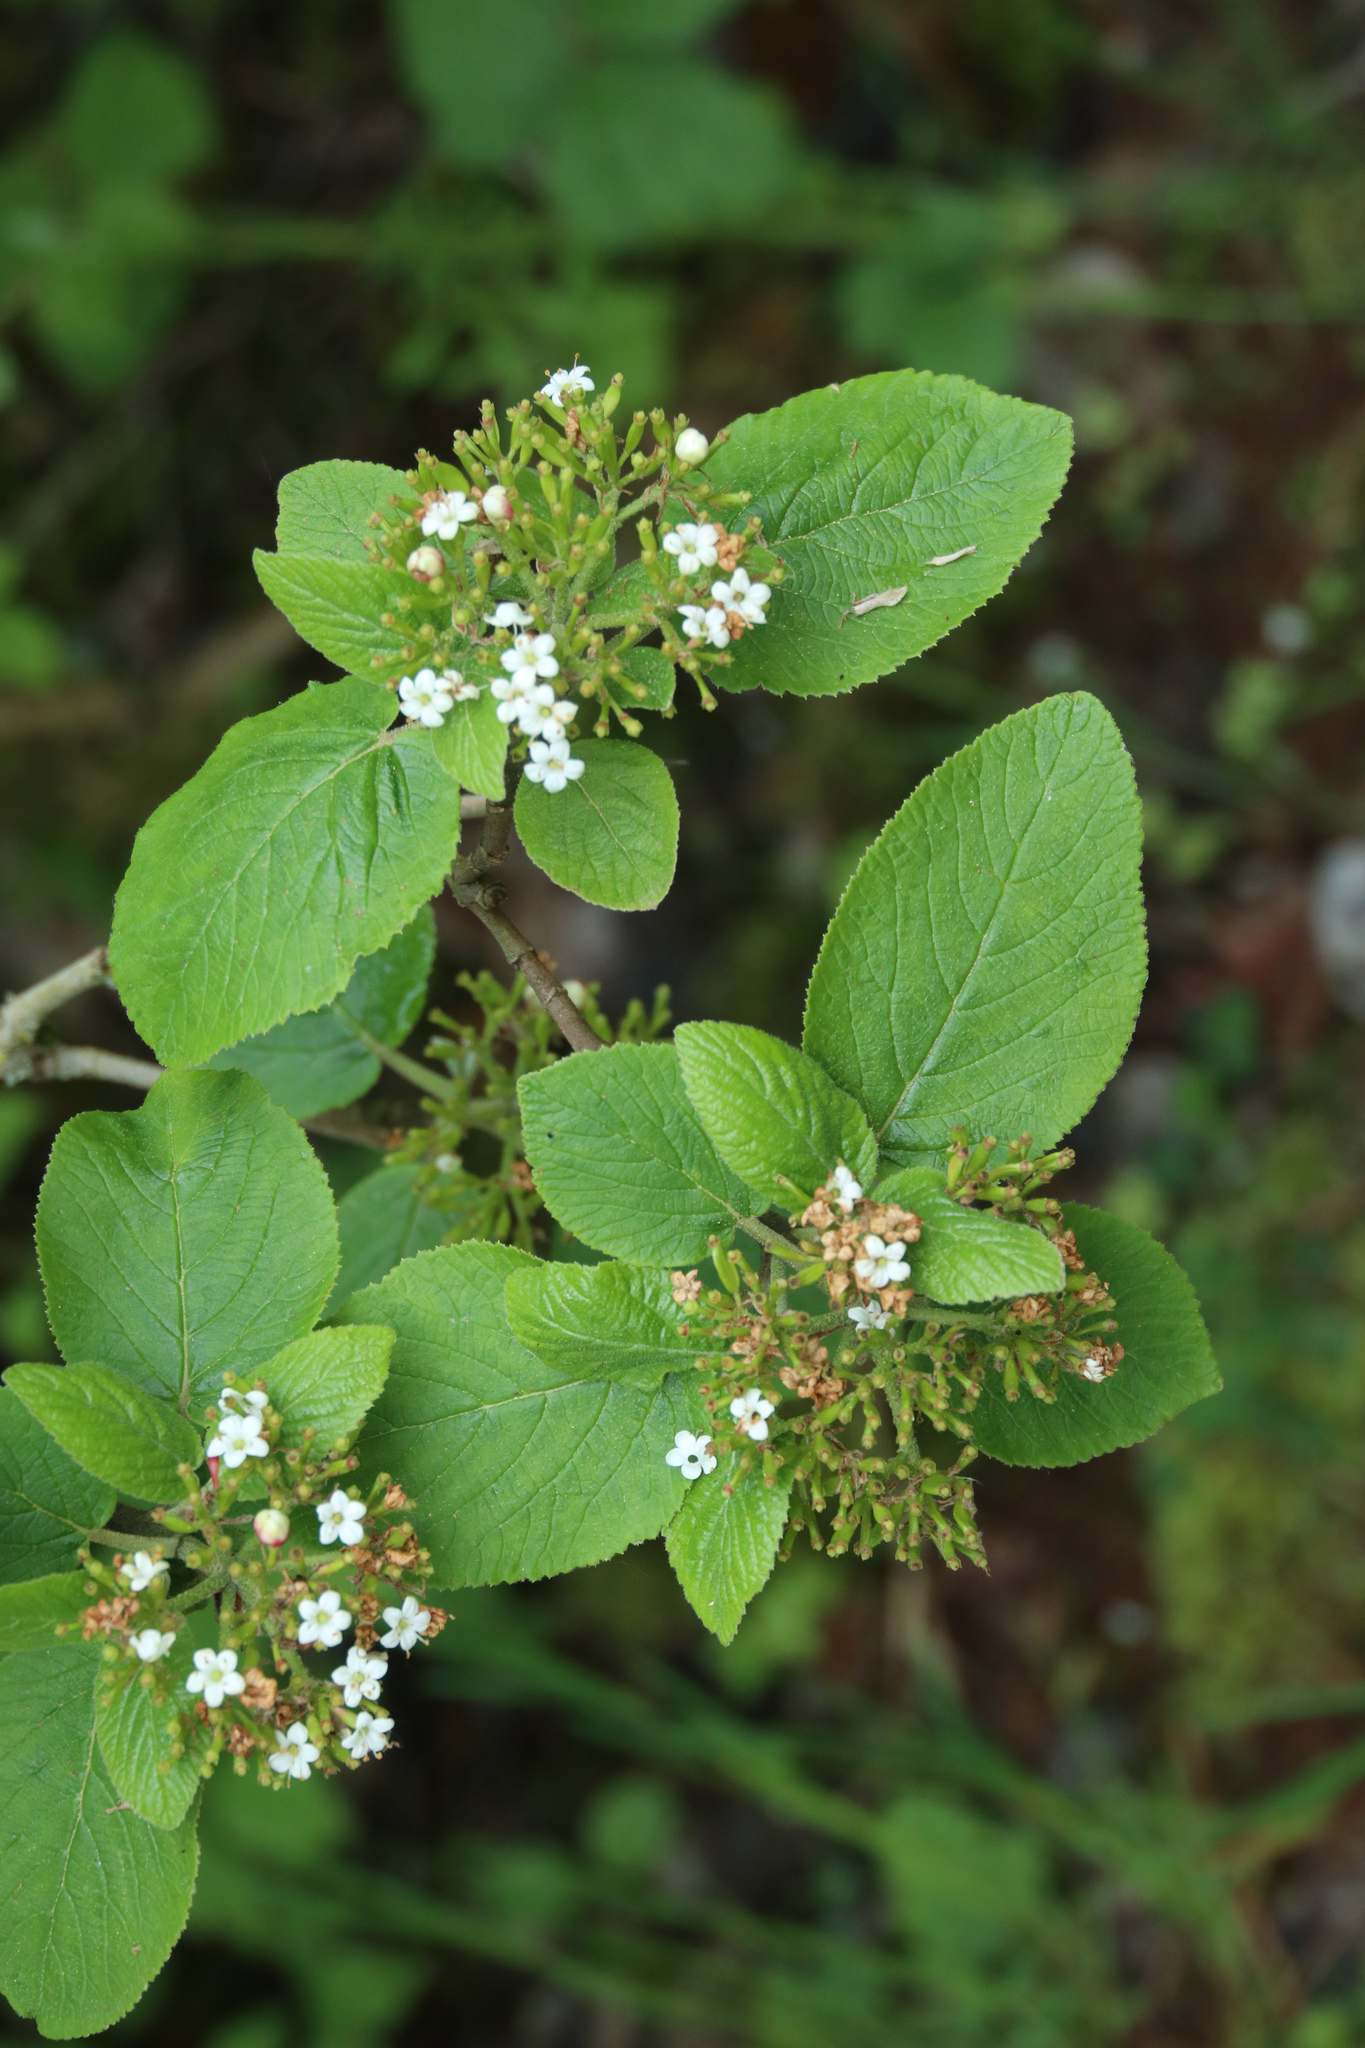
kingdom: Plantae
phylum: Tracheophyta
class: Magnoliopsida
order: Dipsacales
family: Viburnaceae
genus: Viburnum
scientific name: Viburnum lantana
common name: Wayfaring tree
